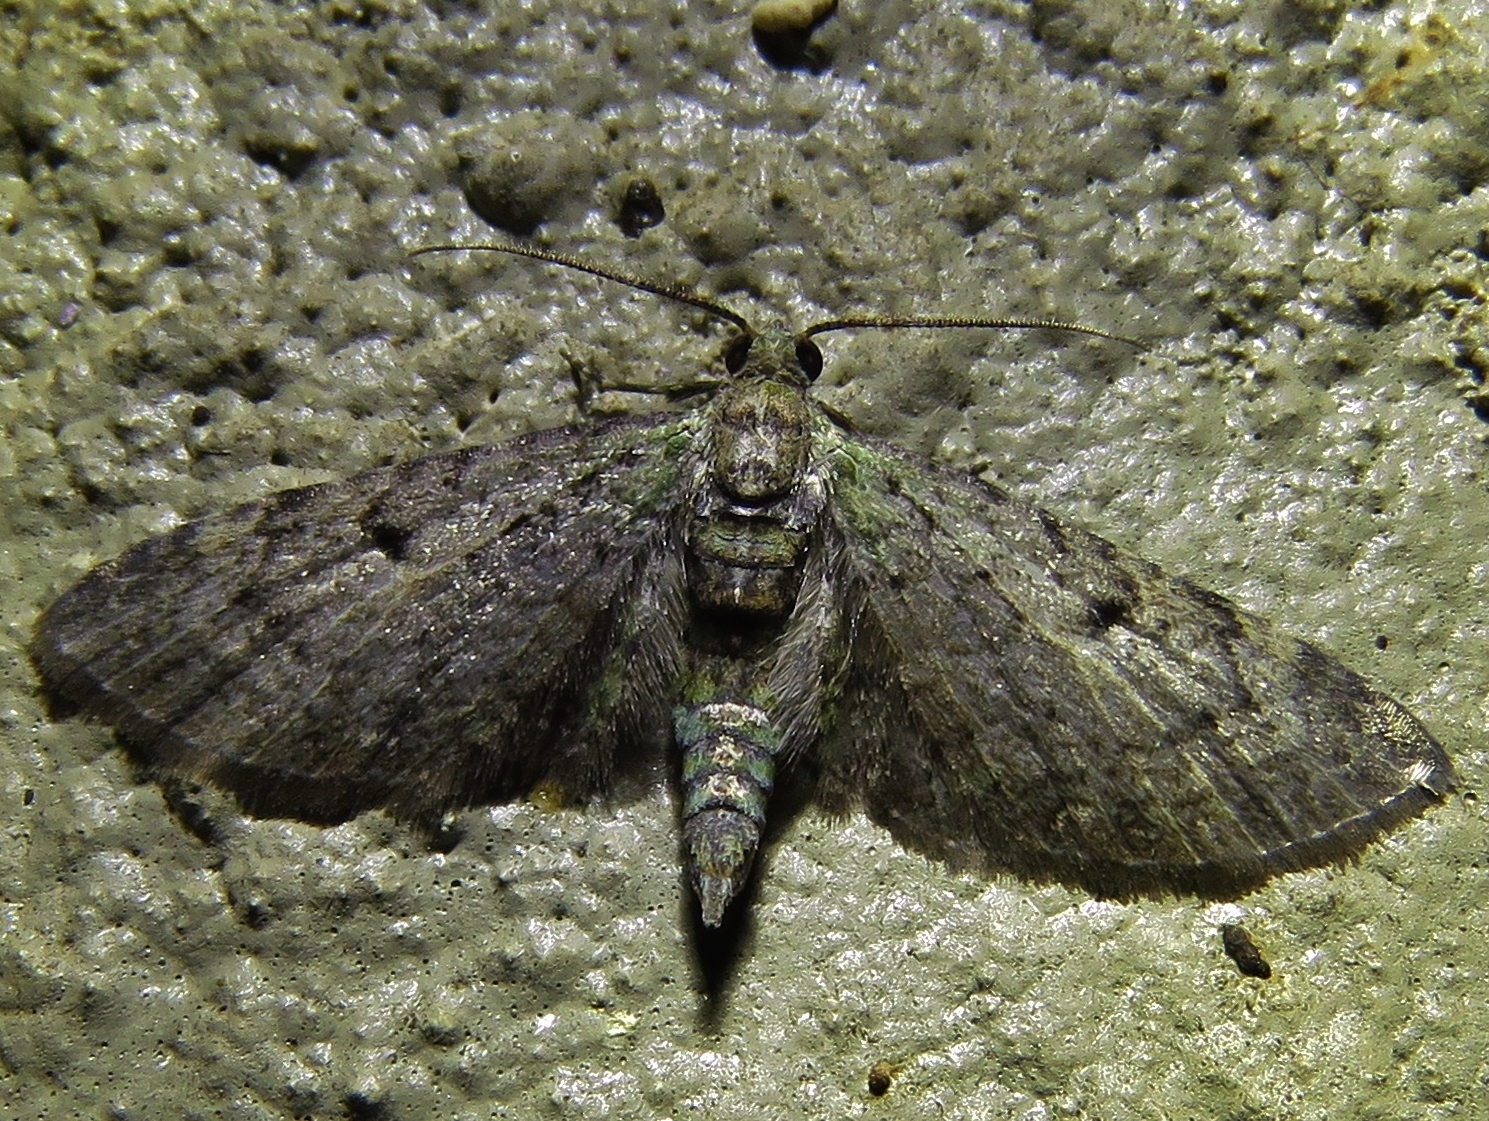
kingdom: Animalia
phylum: Arthropoda
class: Insecta
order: Lepidoptera
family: Geometridae
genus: Eupithecia
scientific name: Eupithecia miserulata
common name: Common eupithecia
